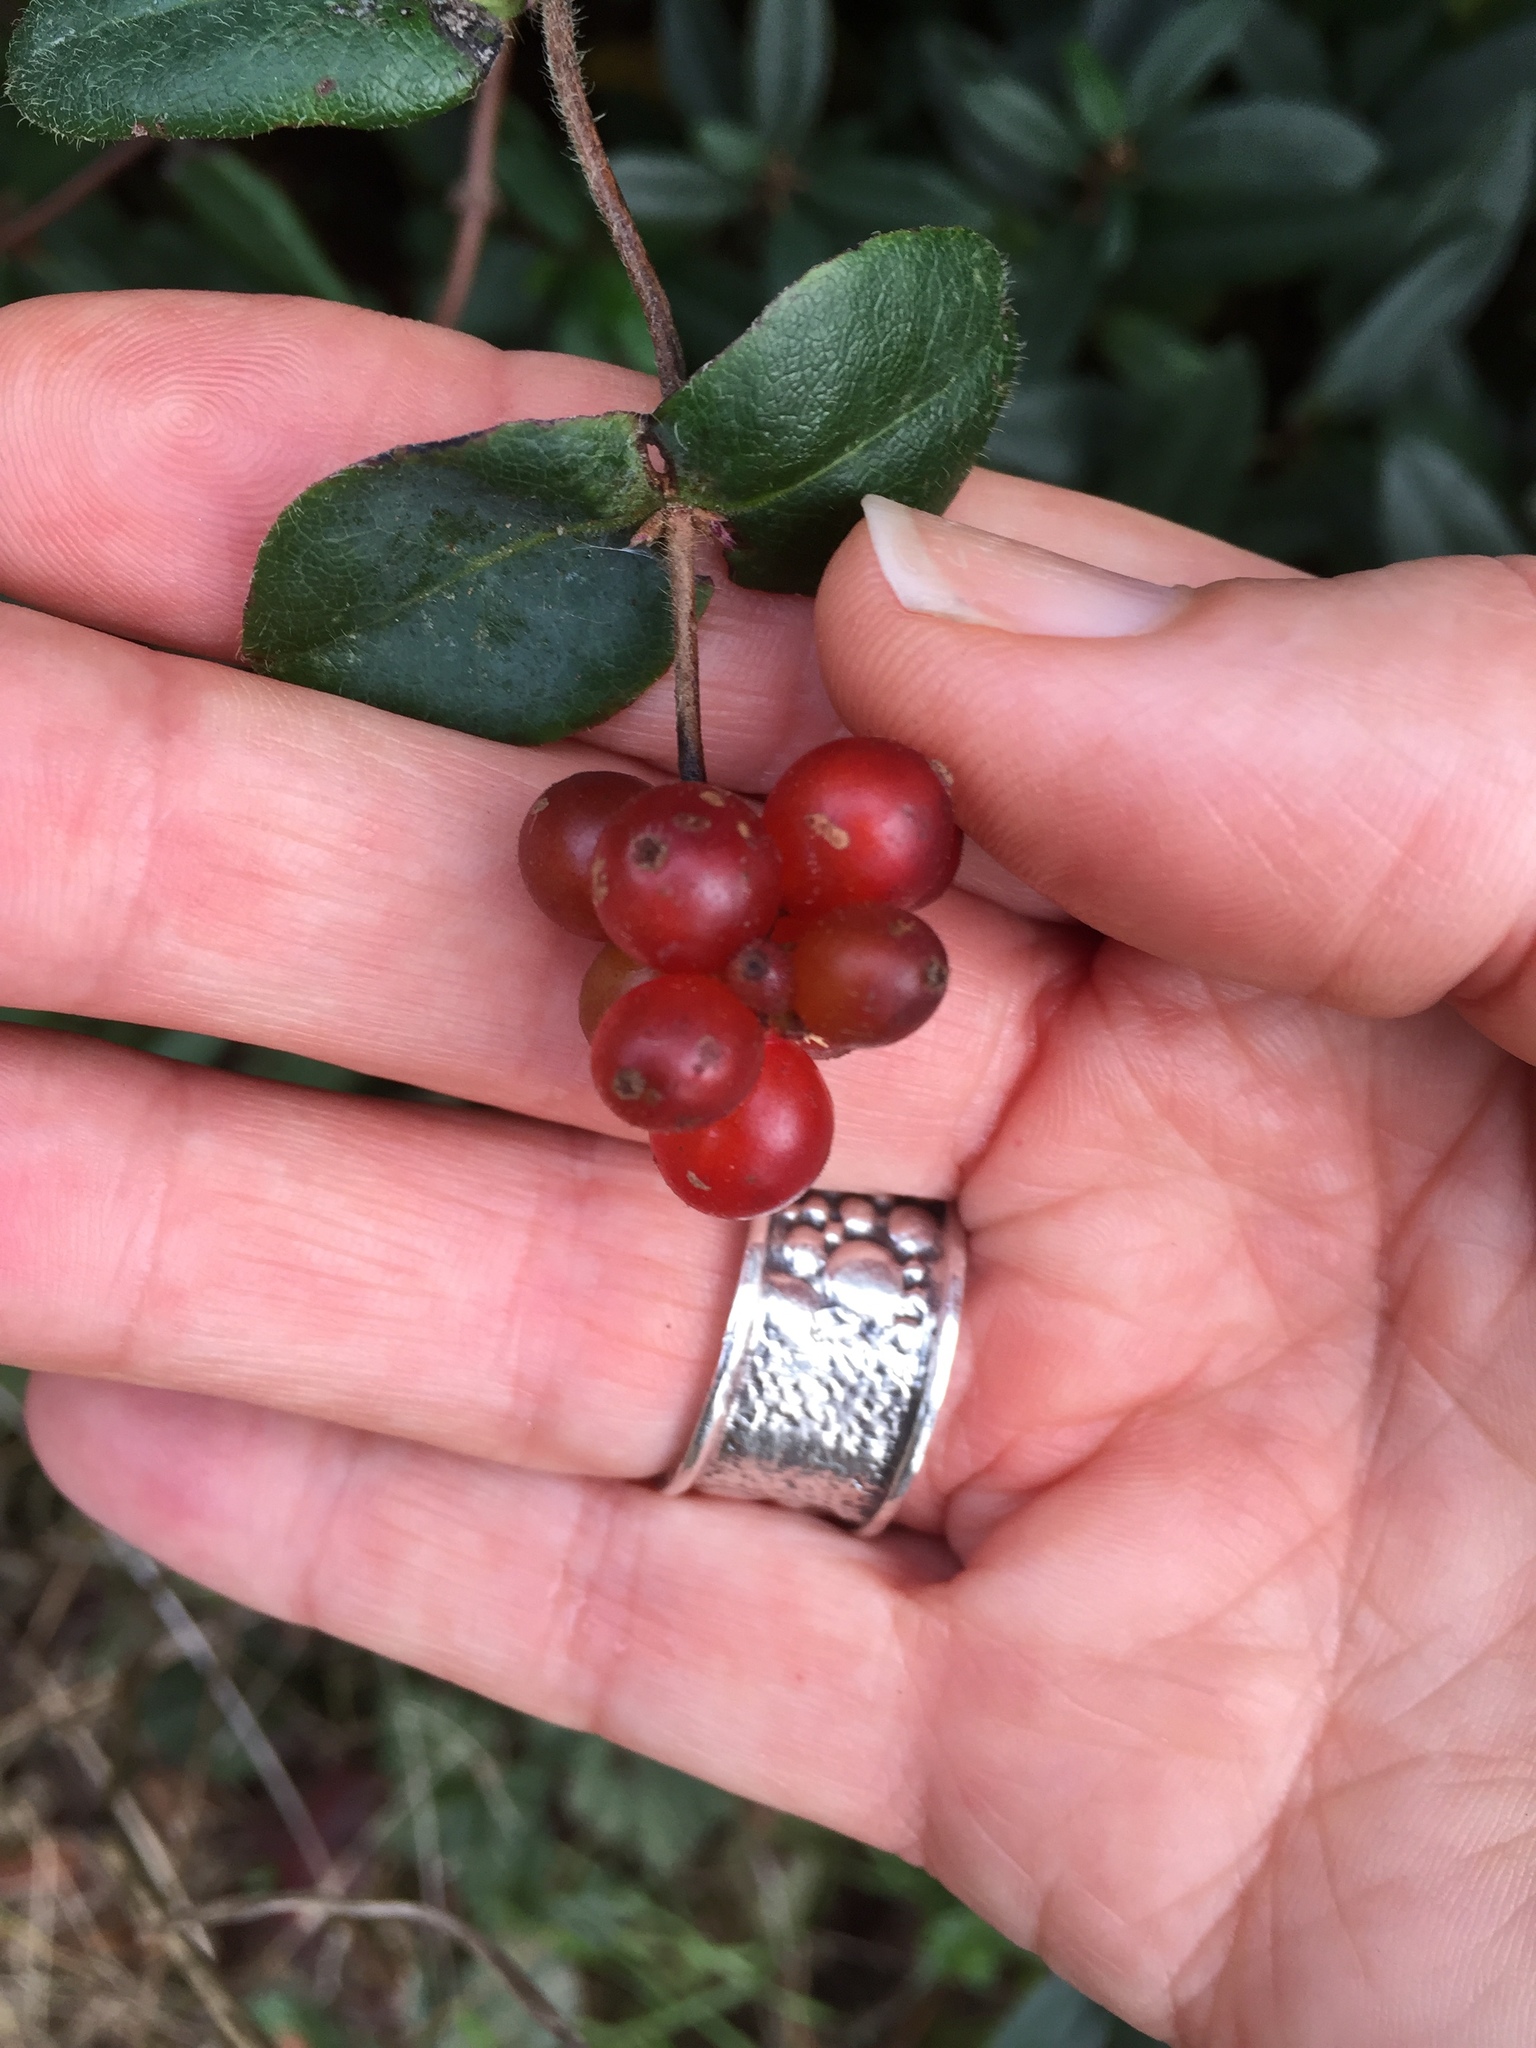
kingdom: Plantae
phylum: Tracheophyta
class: Magnoliopsida
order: Dipsacales
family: Caprifoliaceae
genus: Lonicera
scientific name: Lonicera hispidula
